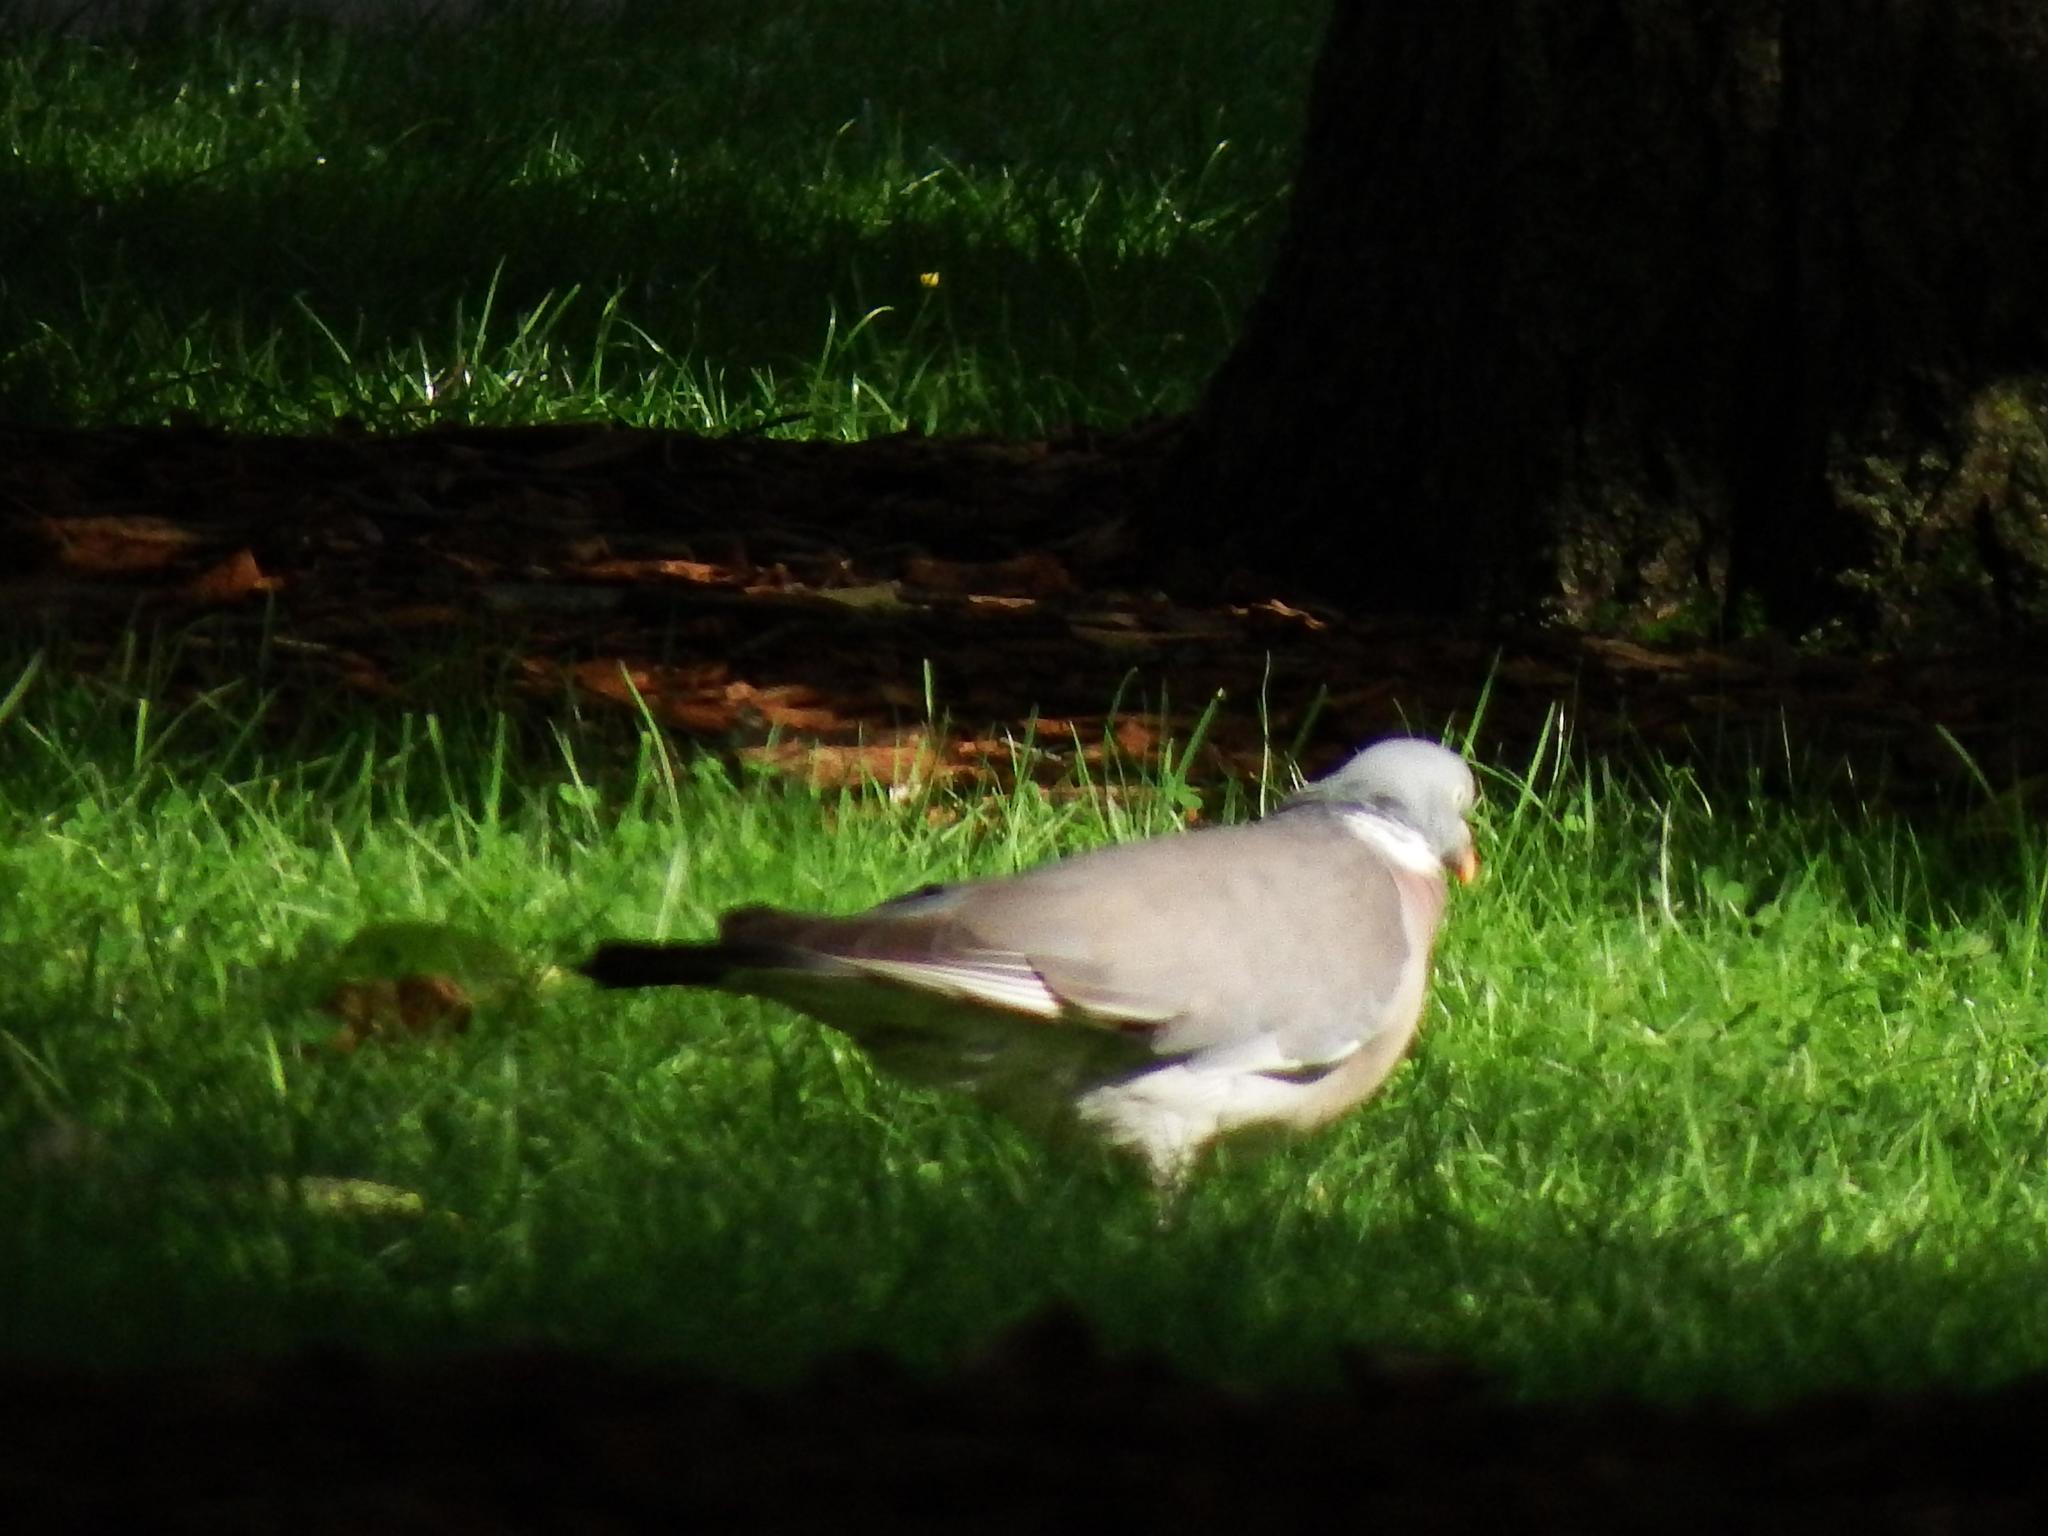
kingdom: Animalia
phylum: Chordata
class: Aves
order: Columbiformes
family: Columbidae
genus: Columba
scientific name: Columba palumbus
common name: Common wood pigeon
